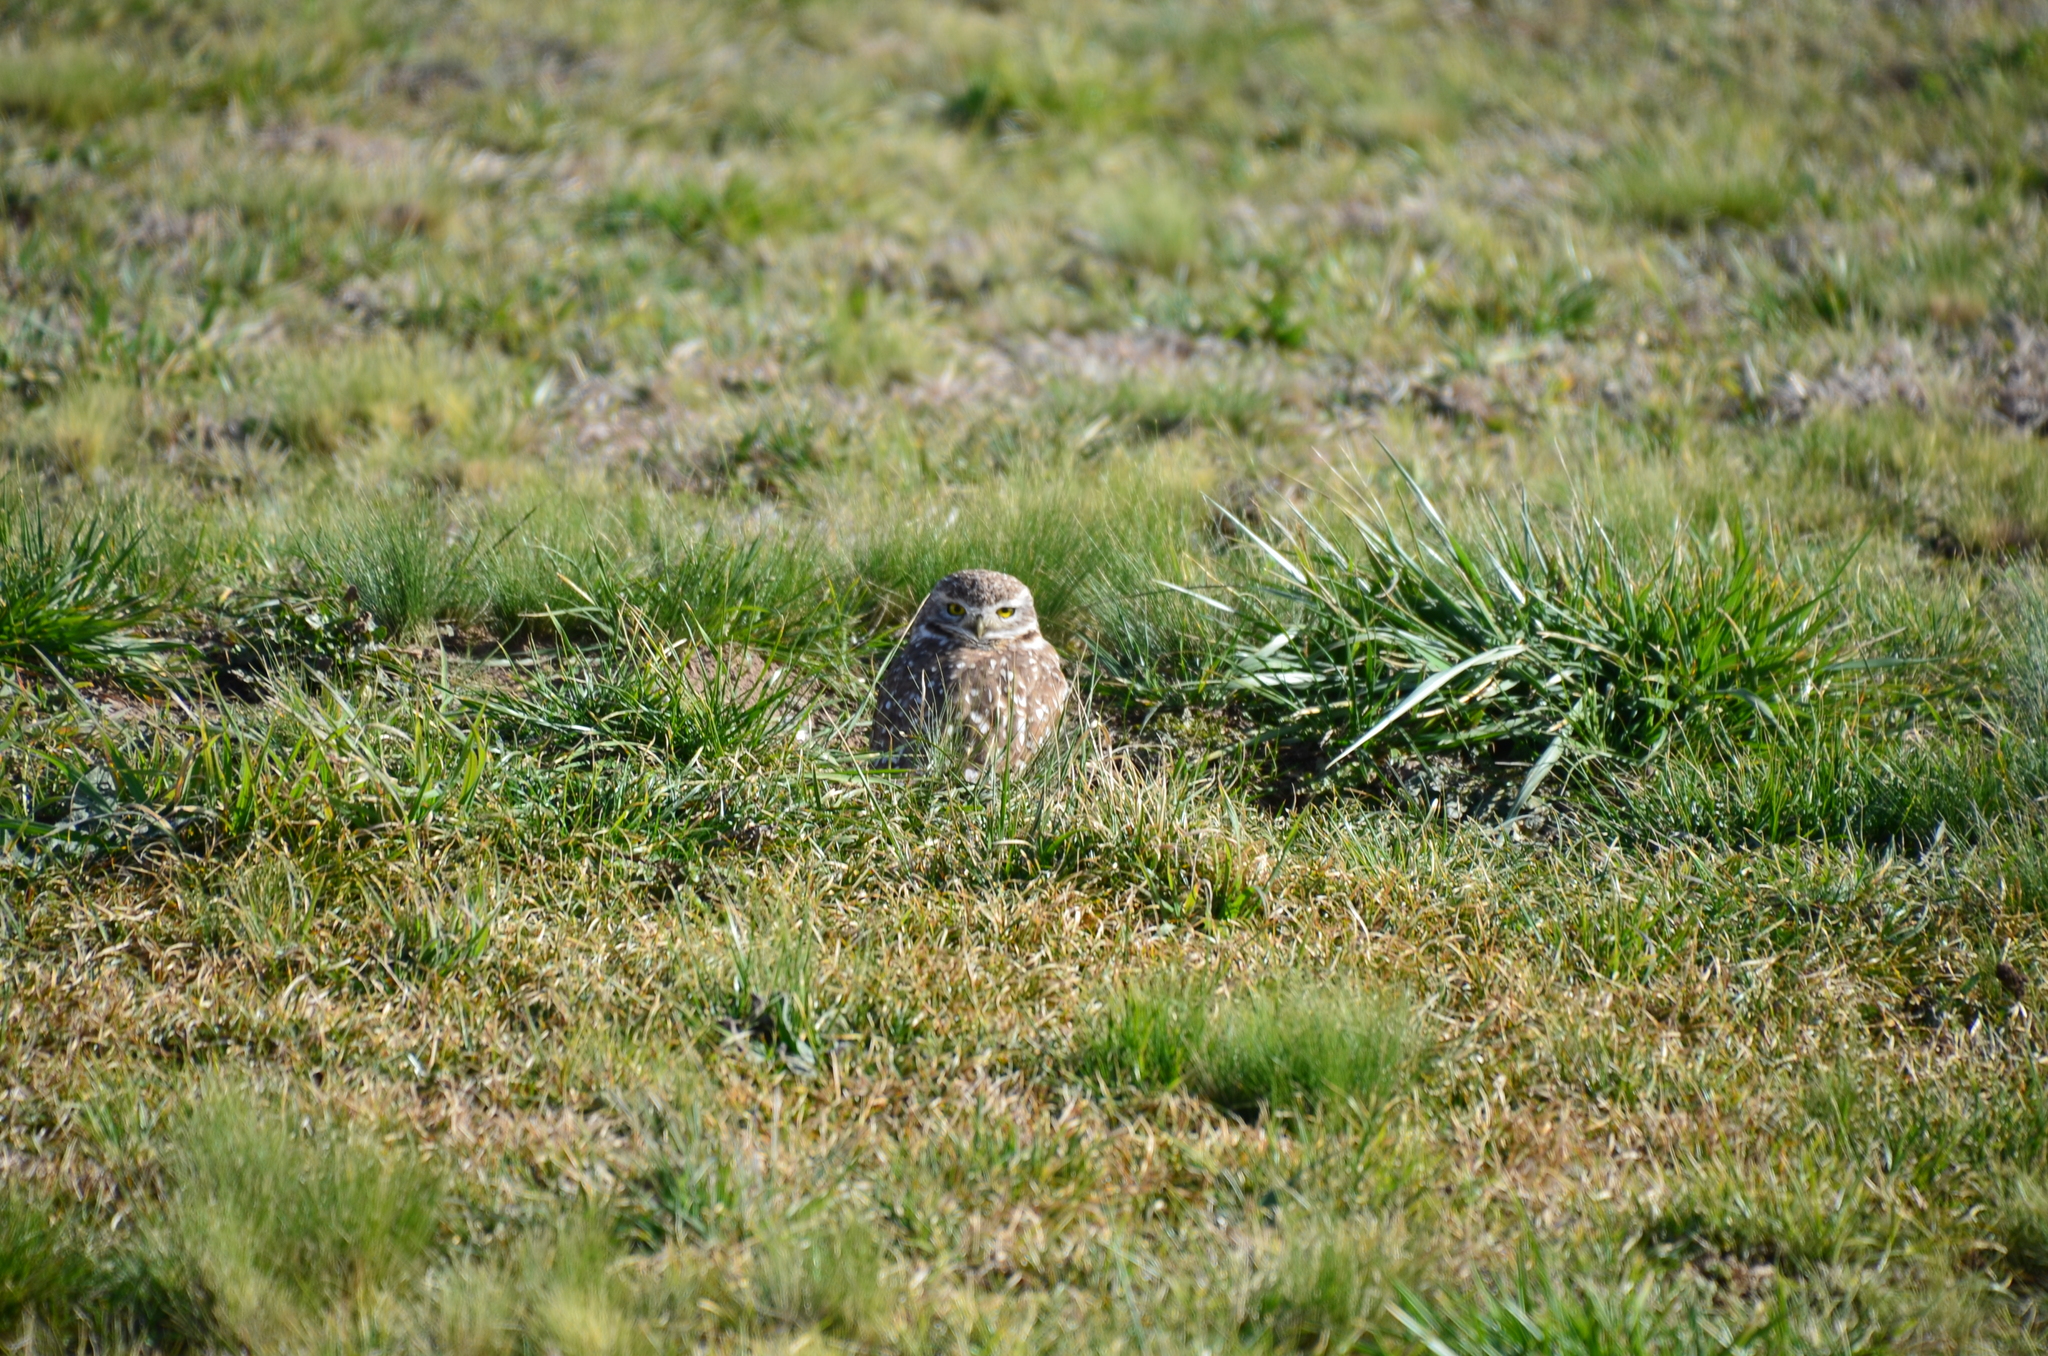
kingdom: Animalia
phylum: Chordata
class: Aves
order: Strigiformes
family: Strigidae
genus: Athene
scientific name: Athene cunicularia
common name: Burrowing owl
